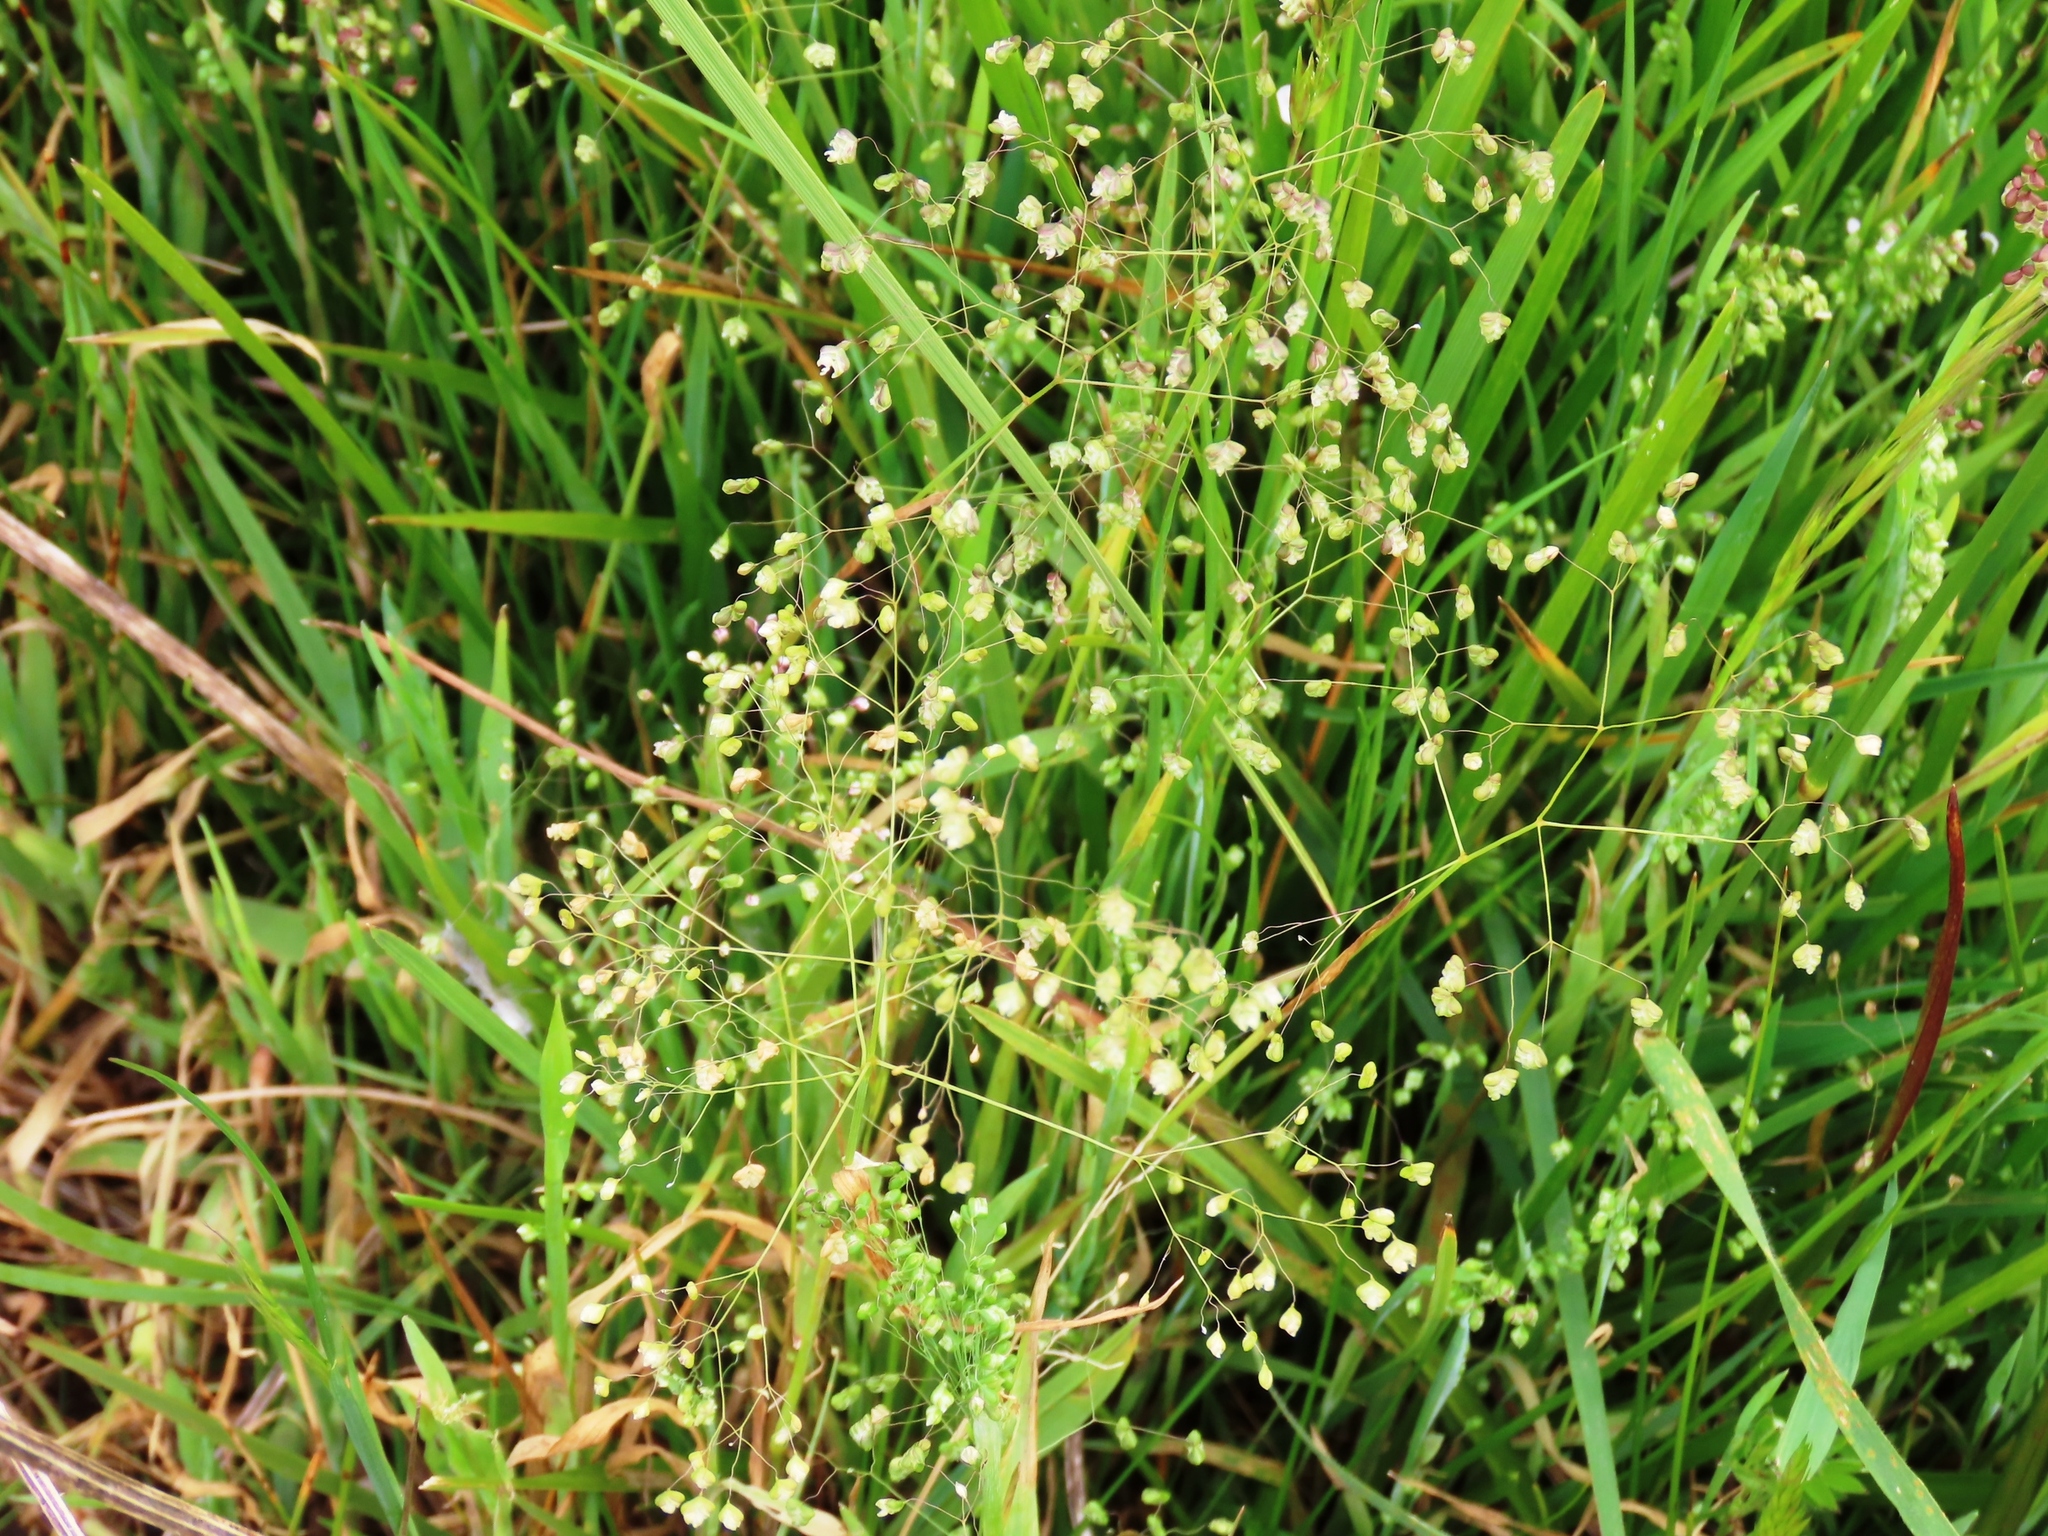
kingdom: Plantae
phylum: Tracheophyta
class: Liliopsida
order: Poales
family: Poaceae
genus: Briza
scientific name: Briza minor
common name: Lesser quaking-grass
